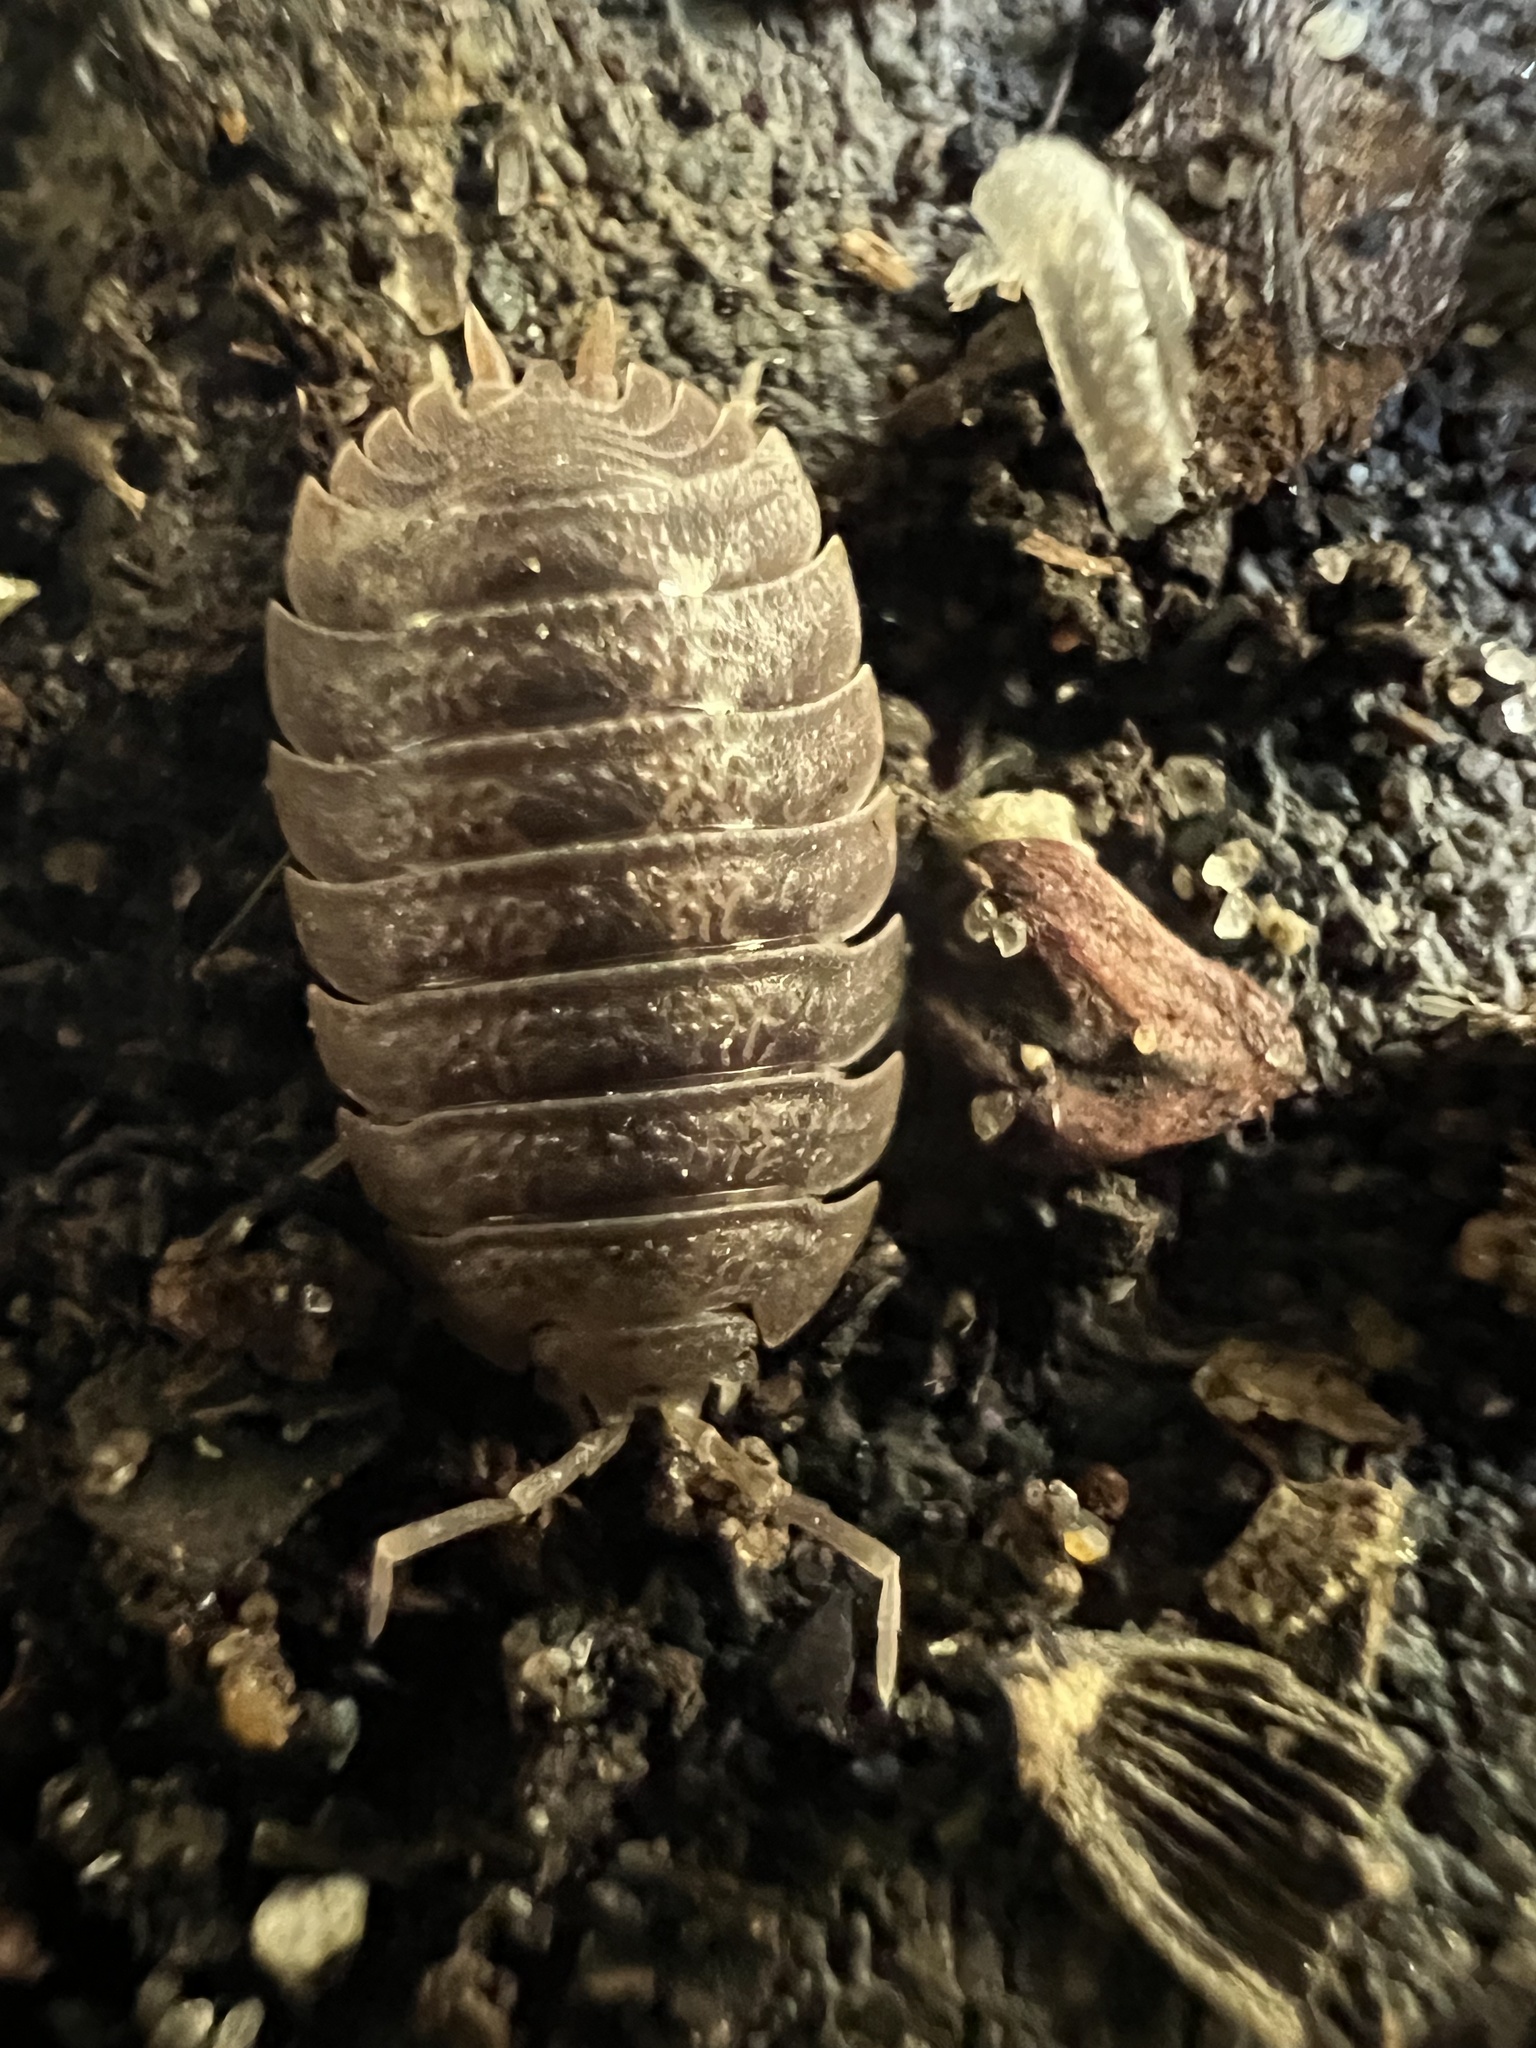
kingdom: Animalia
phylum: Arthropoda
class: Malacostraca
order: Isopoda
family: Porcellionidae
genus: Porcellio
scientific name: Porcellio dilatatus
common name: Isopod
